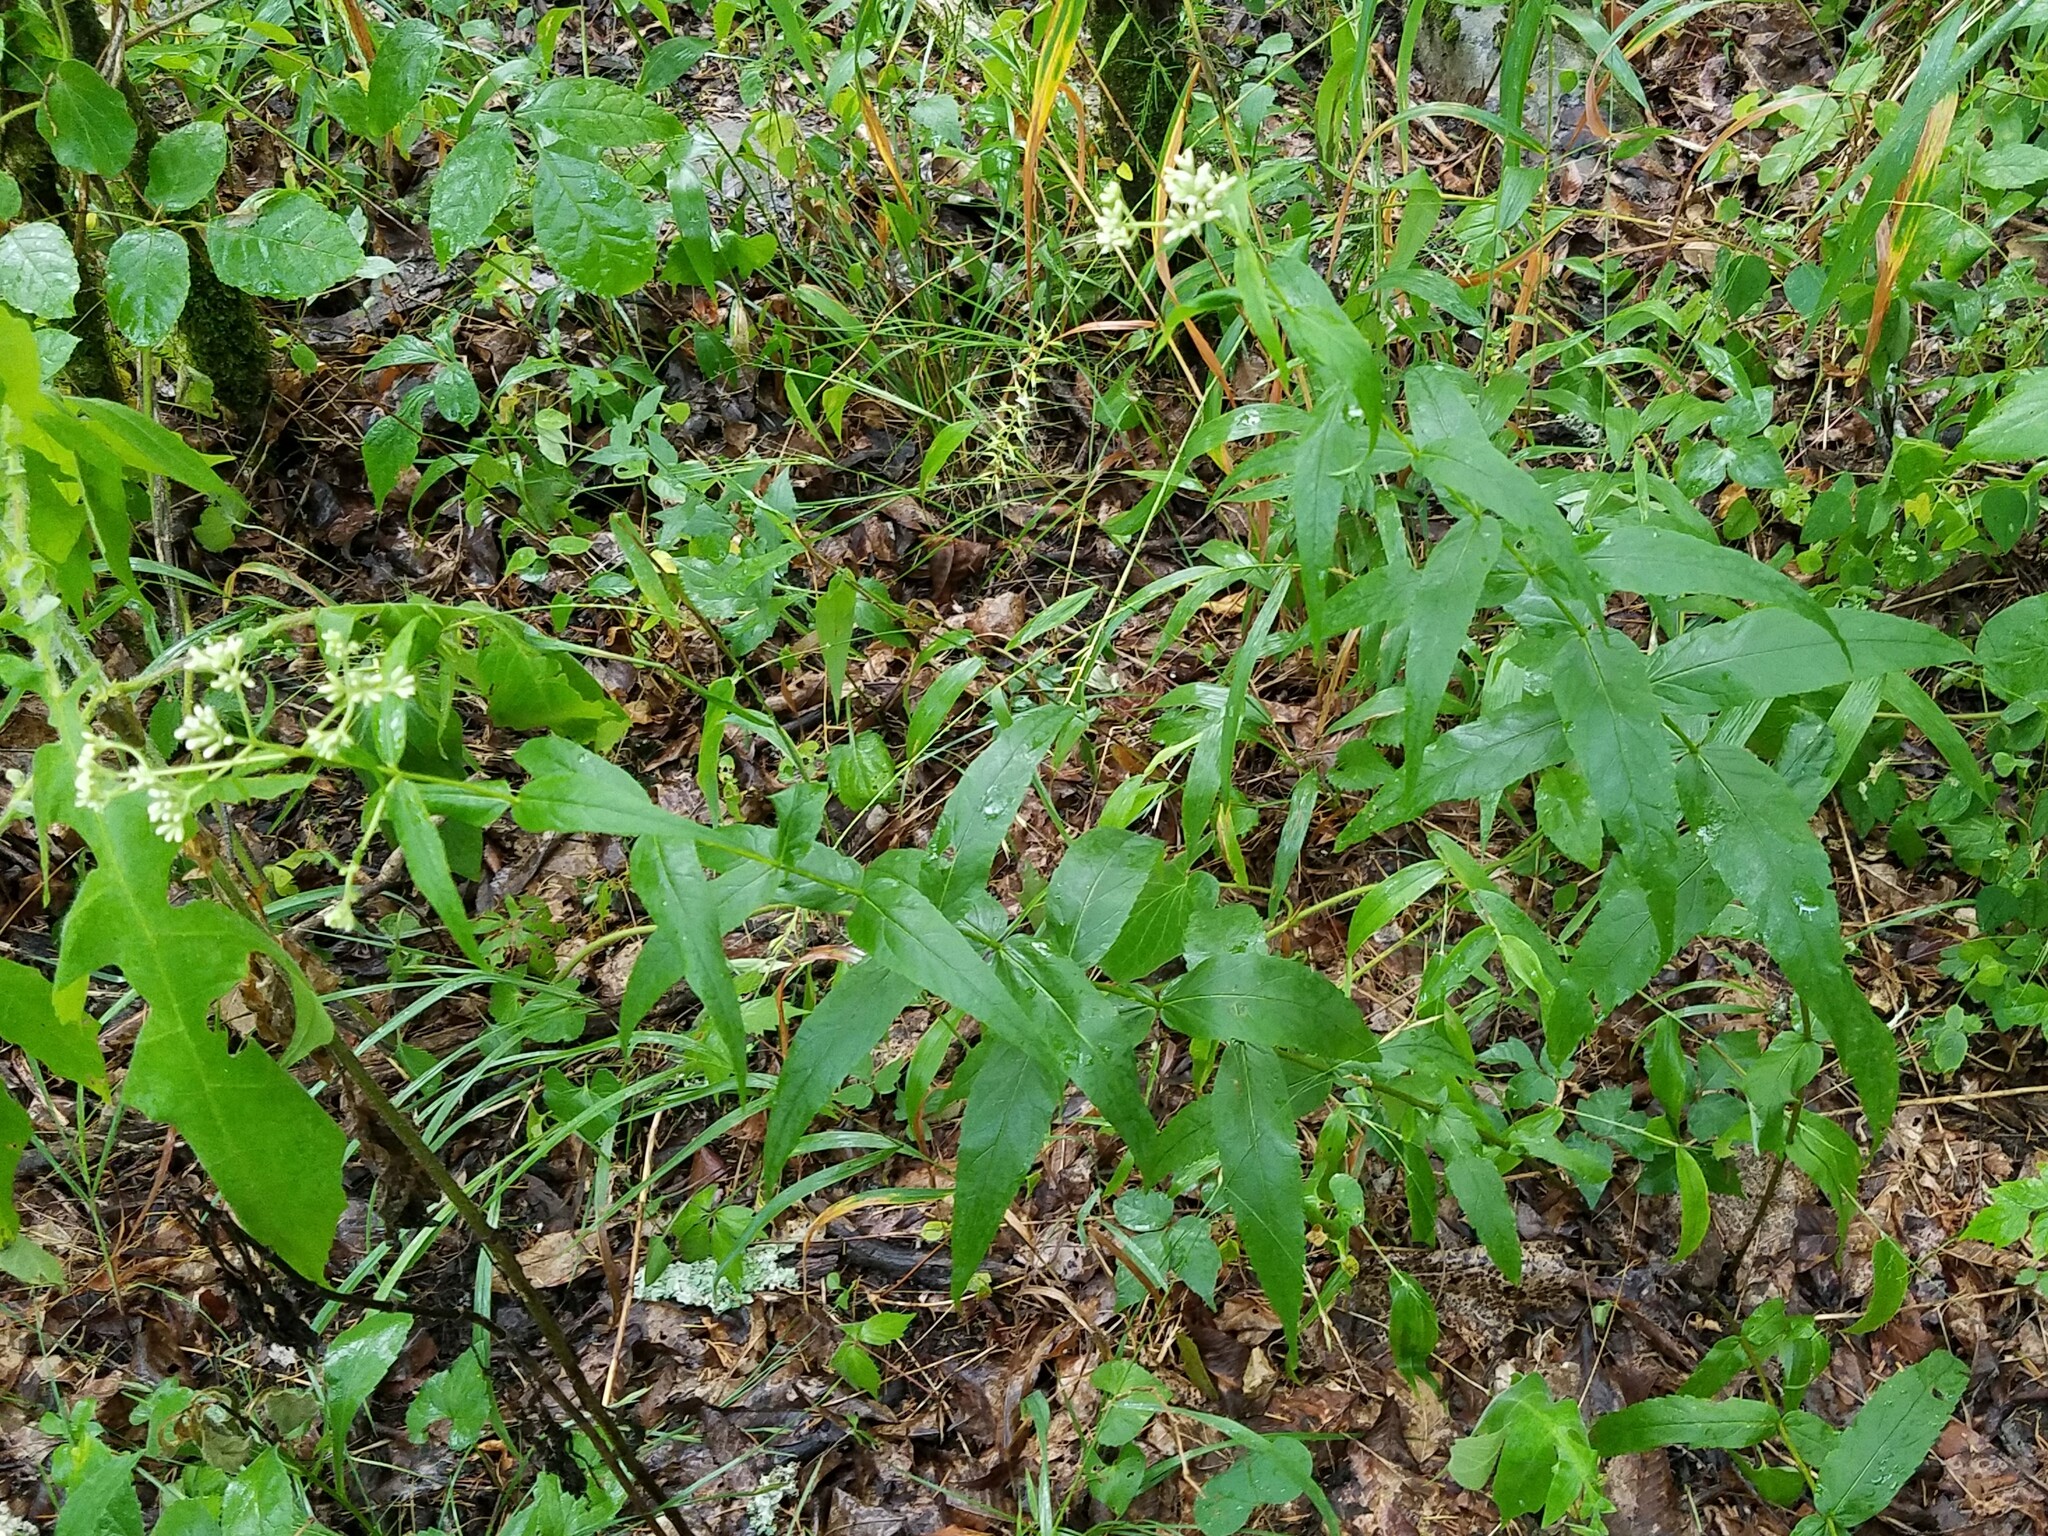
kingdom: Plantae
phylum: Tracheophyta
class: Magnoliopsida
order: Asterales
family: Asteraceae
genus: Eupatorium
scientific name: Eupatorium sessilifolium
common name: Upland boneset
